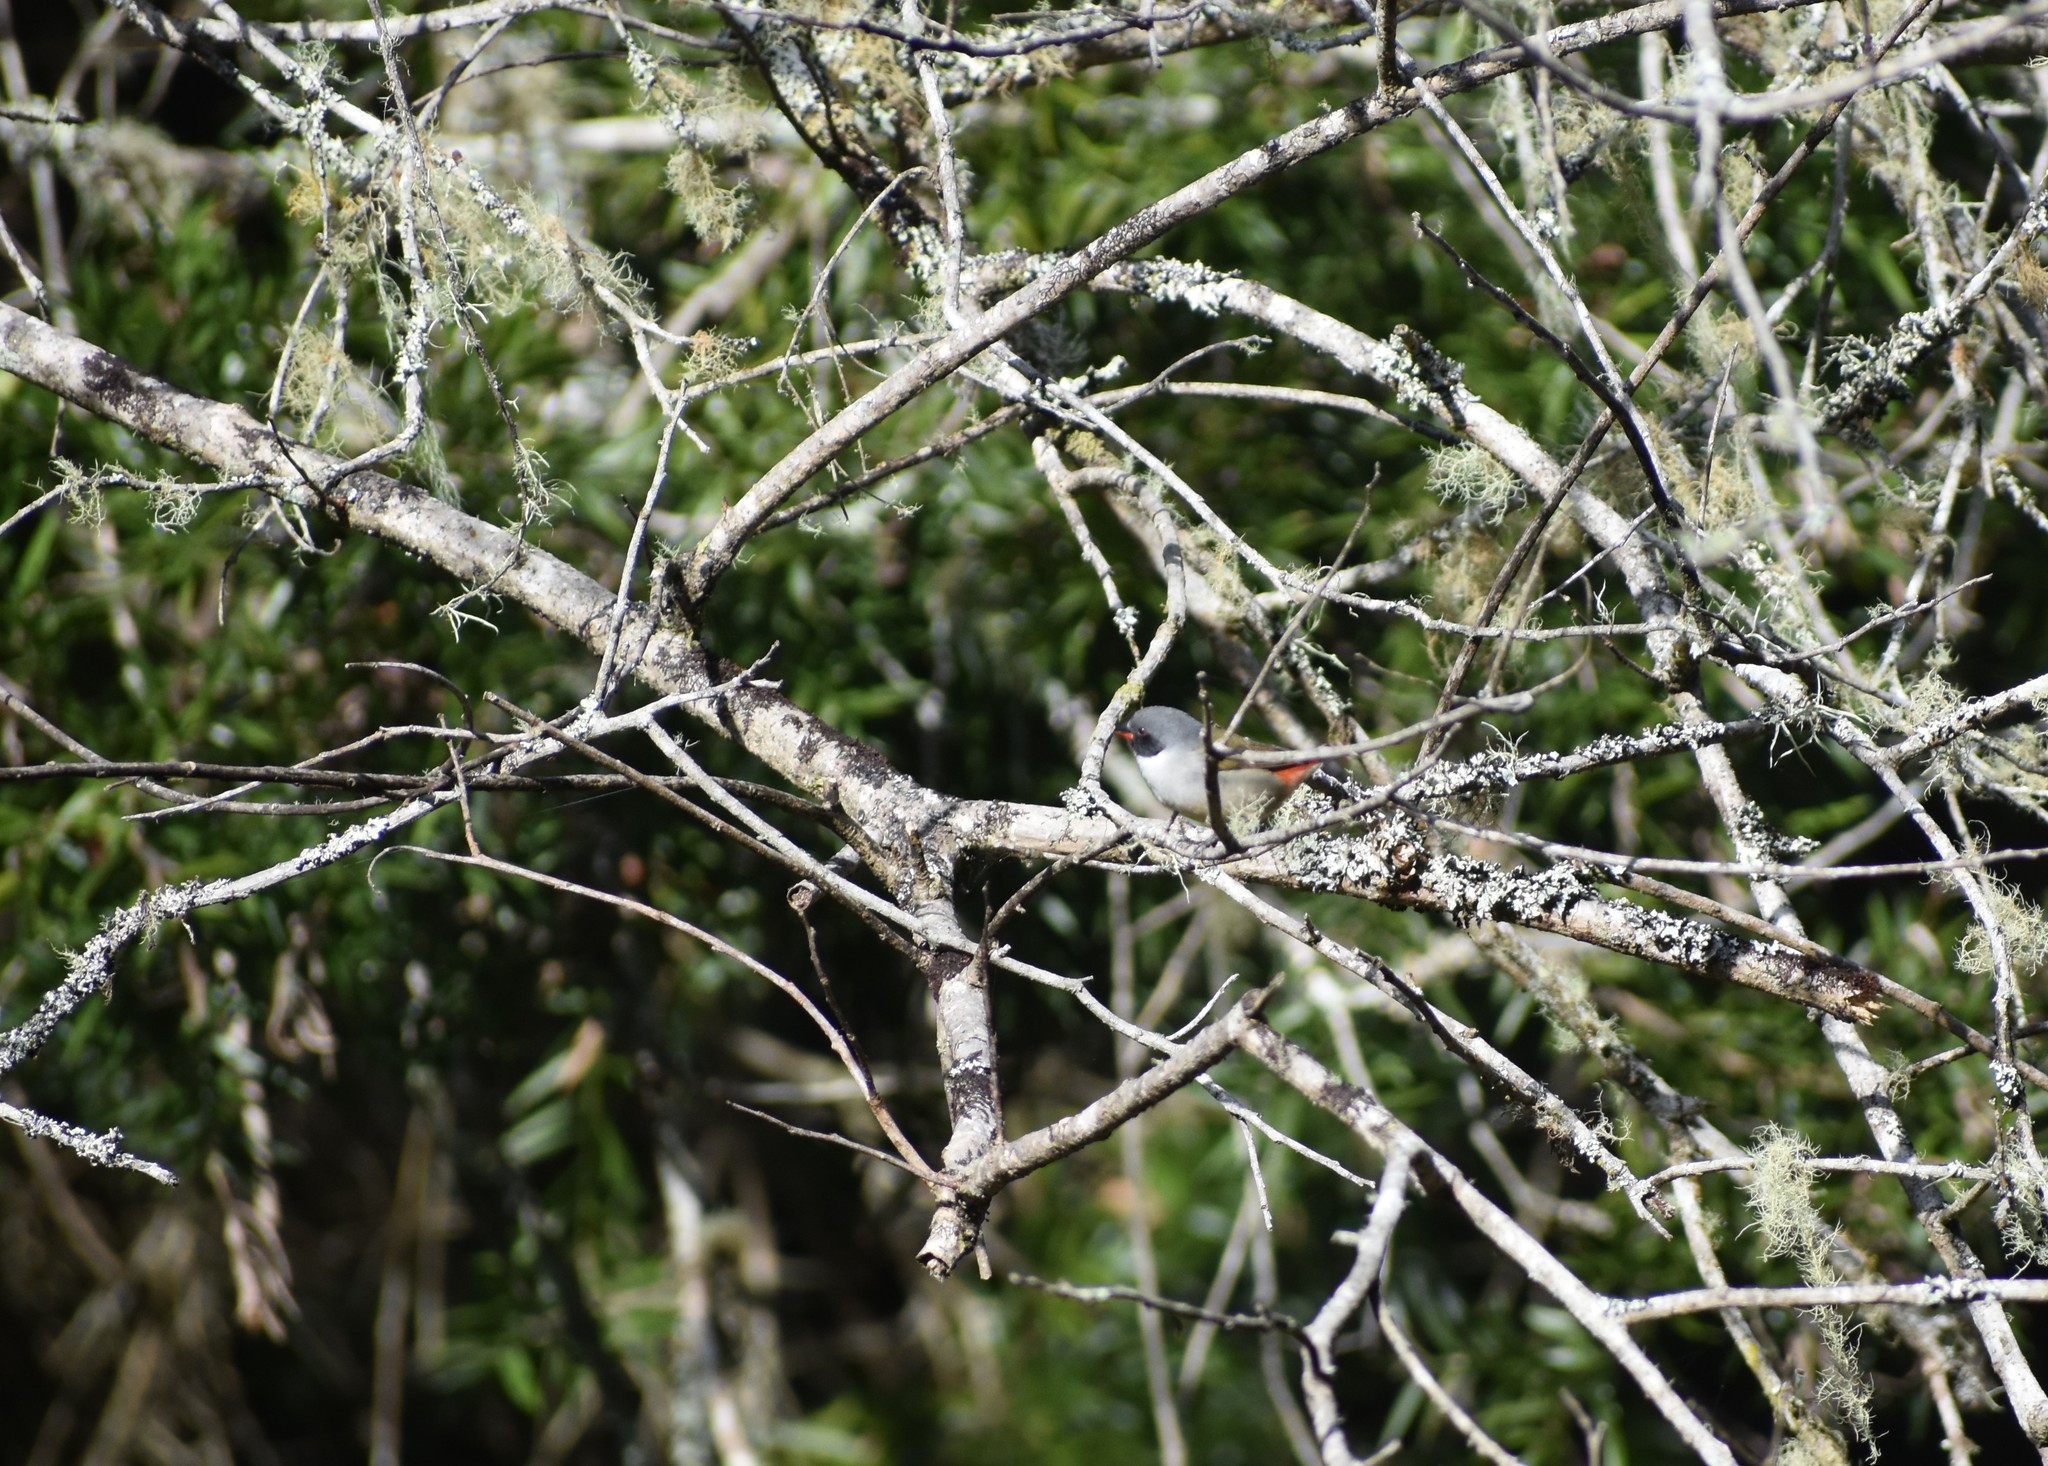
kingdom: Animalia
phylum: Chordata
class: Aves
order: Passeriformes
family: Estrildidae
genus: Coccopygia
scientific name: Coccopygia melanotis
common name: Swee waxbill
